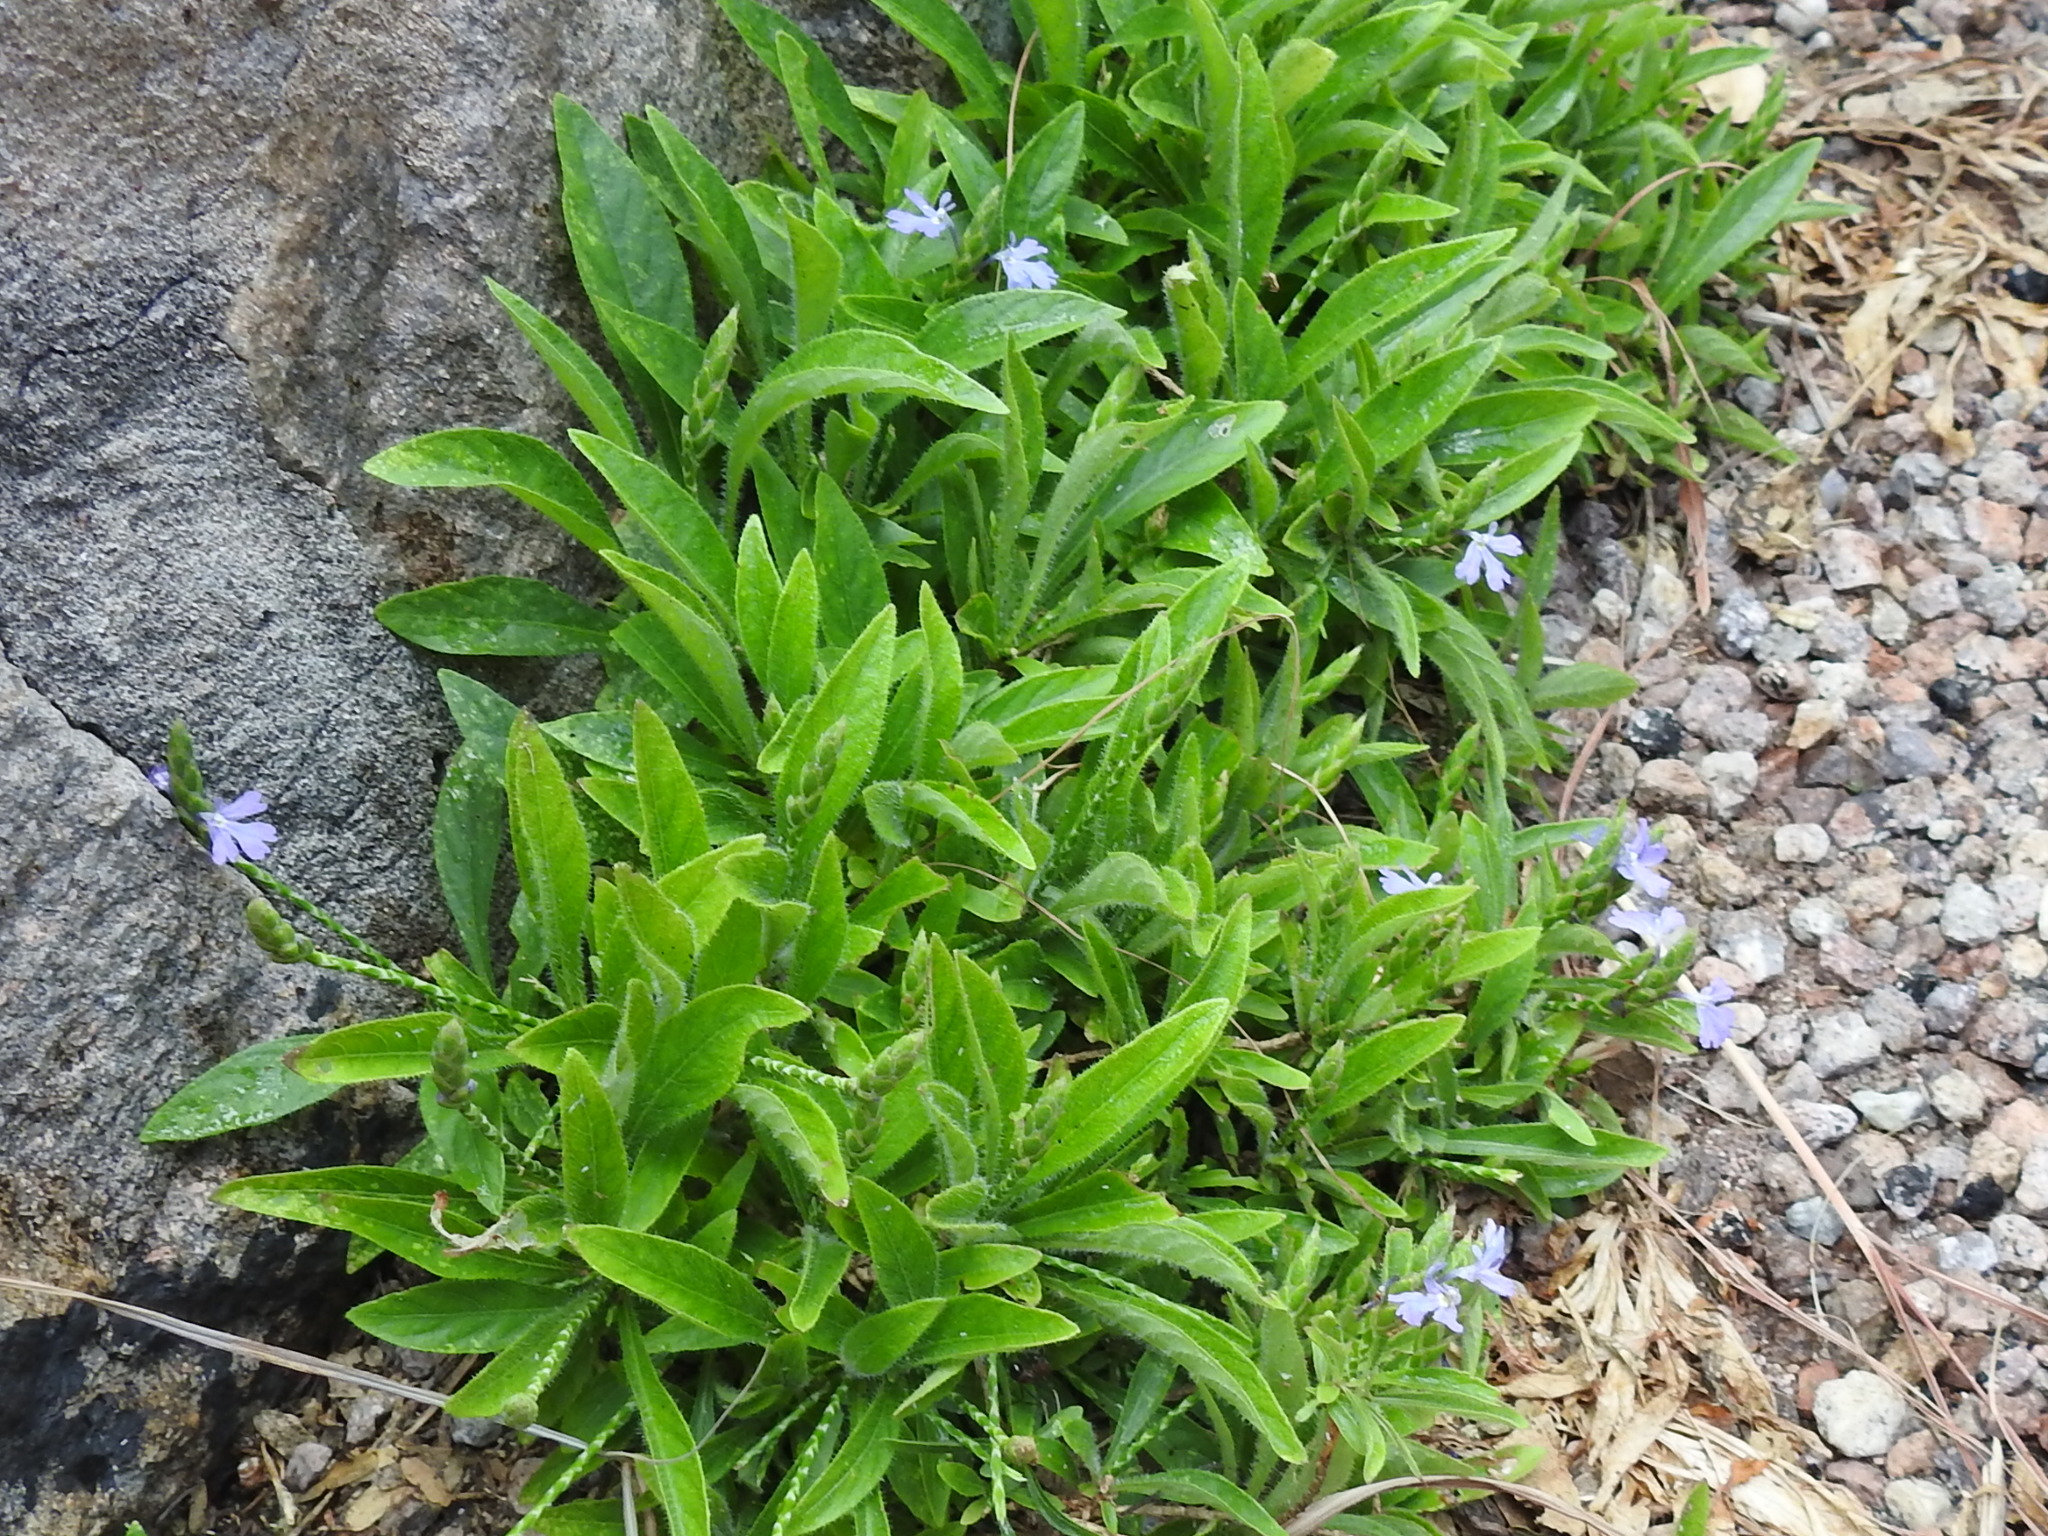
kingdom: Plantae
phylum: Tracheophyta
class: Magnoliopsida
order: Lamiales
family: Acanthaceae
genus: Elytraria
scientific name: Elytraria imbricata
